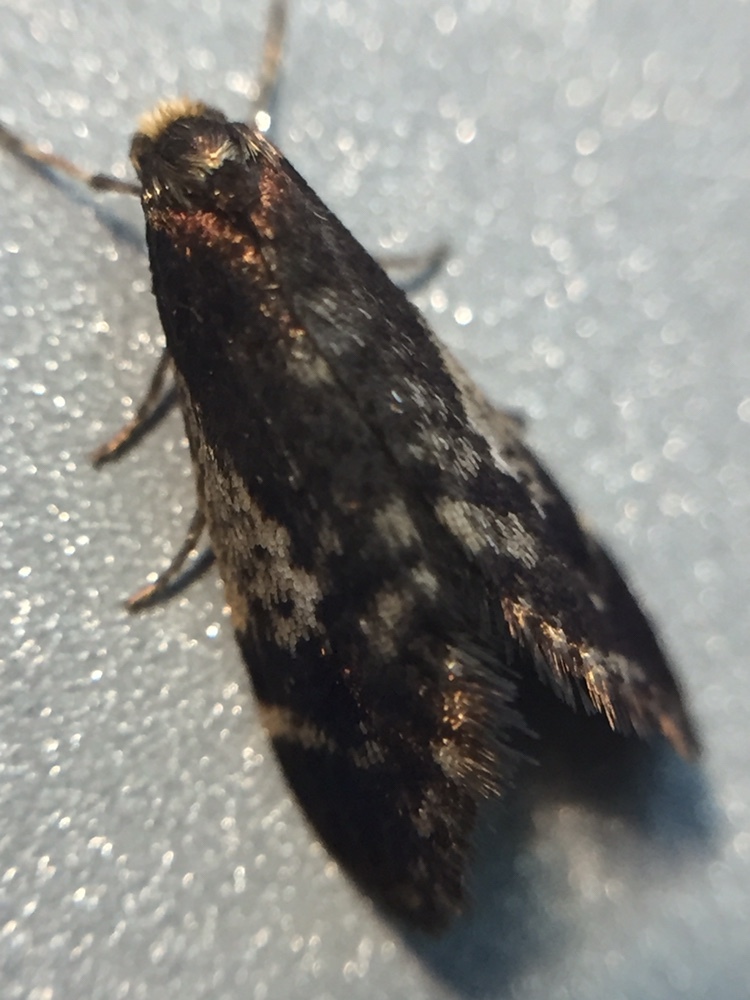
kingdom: Animalia
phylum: Arthropoda
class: Insecta
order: Lepidoptera
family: Psychidae
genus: Lepidoscia
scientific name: Lepidoscia lainodes
